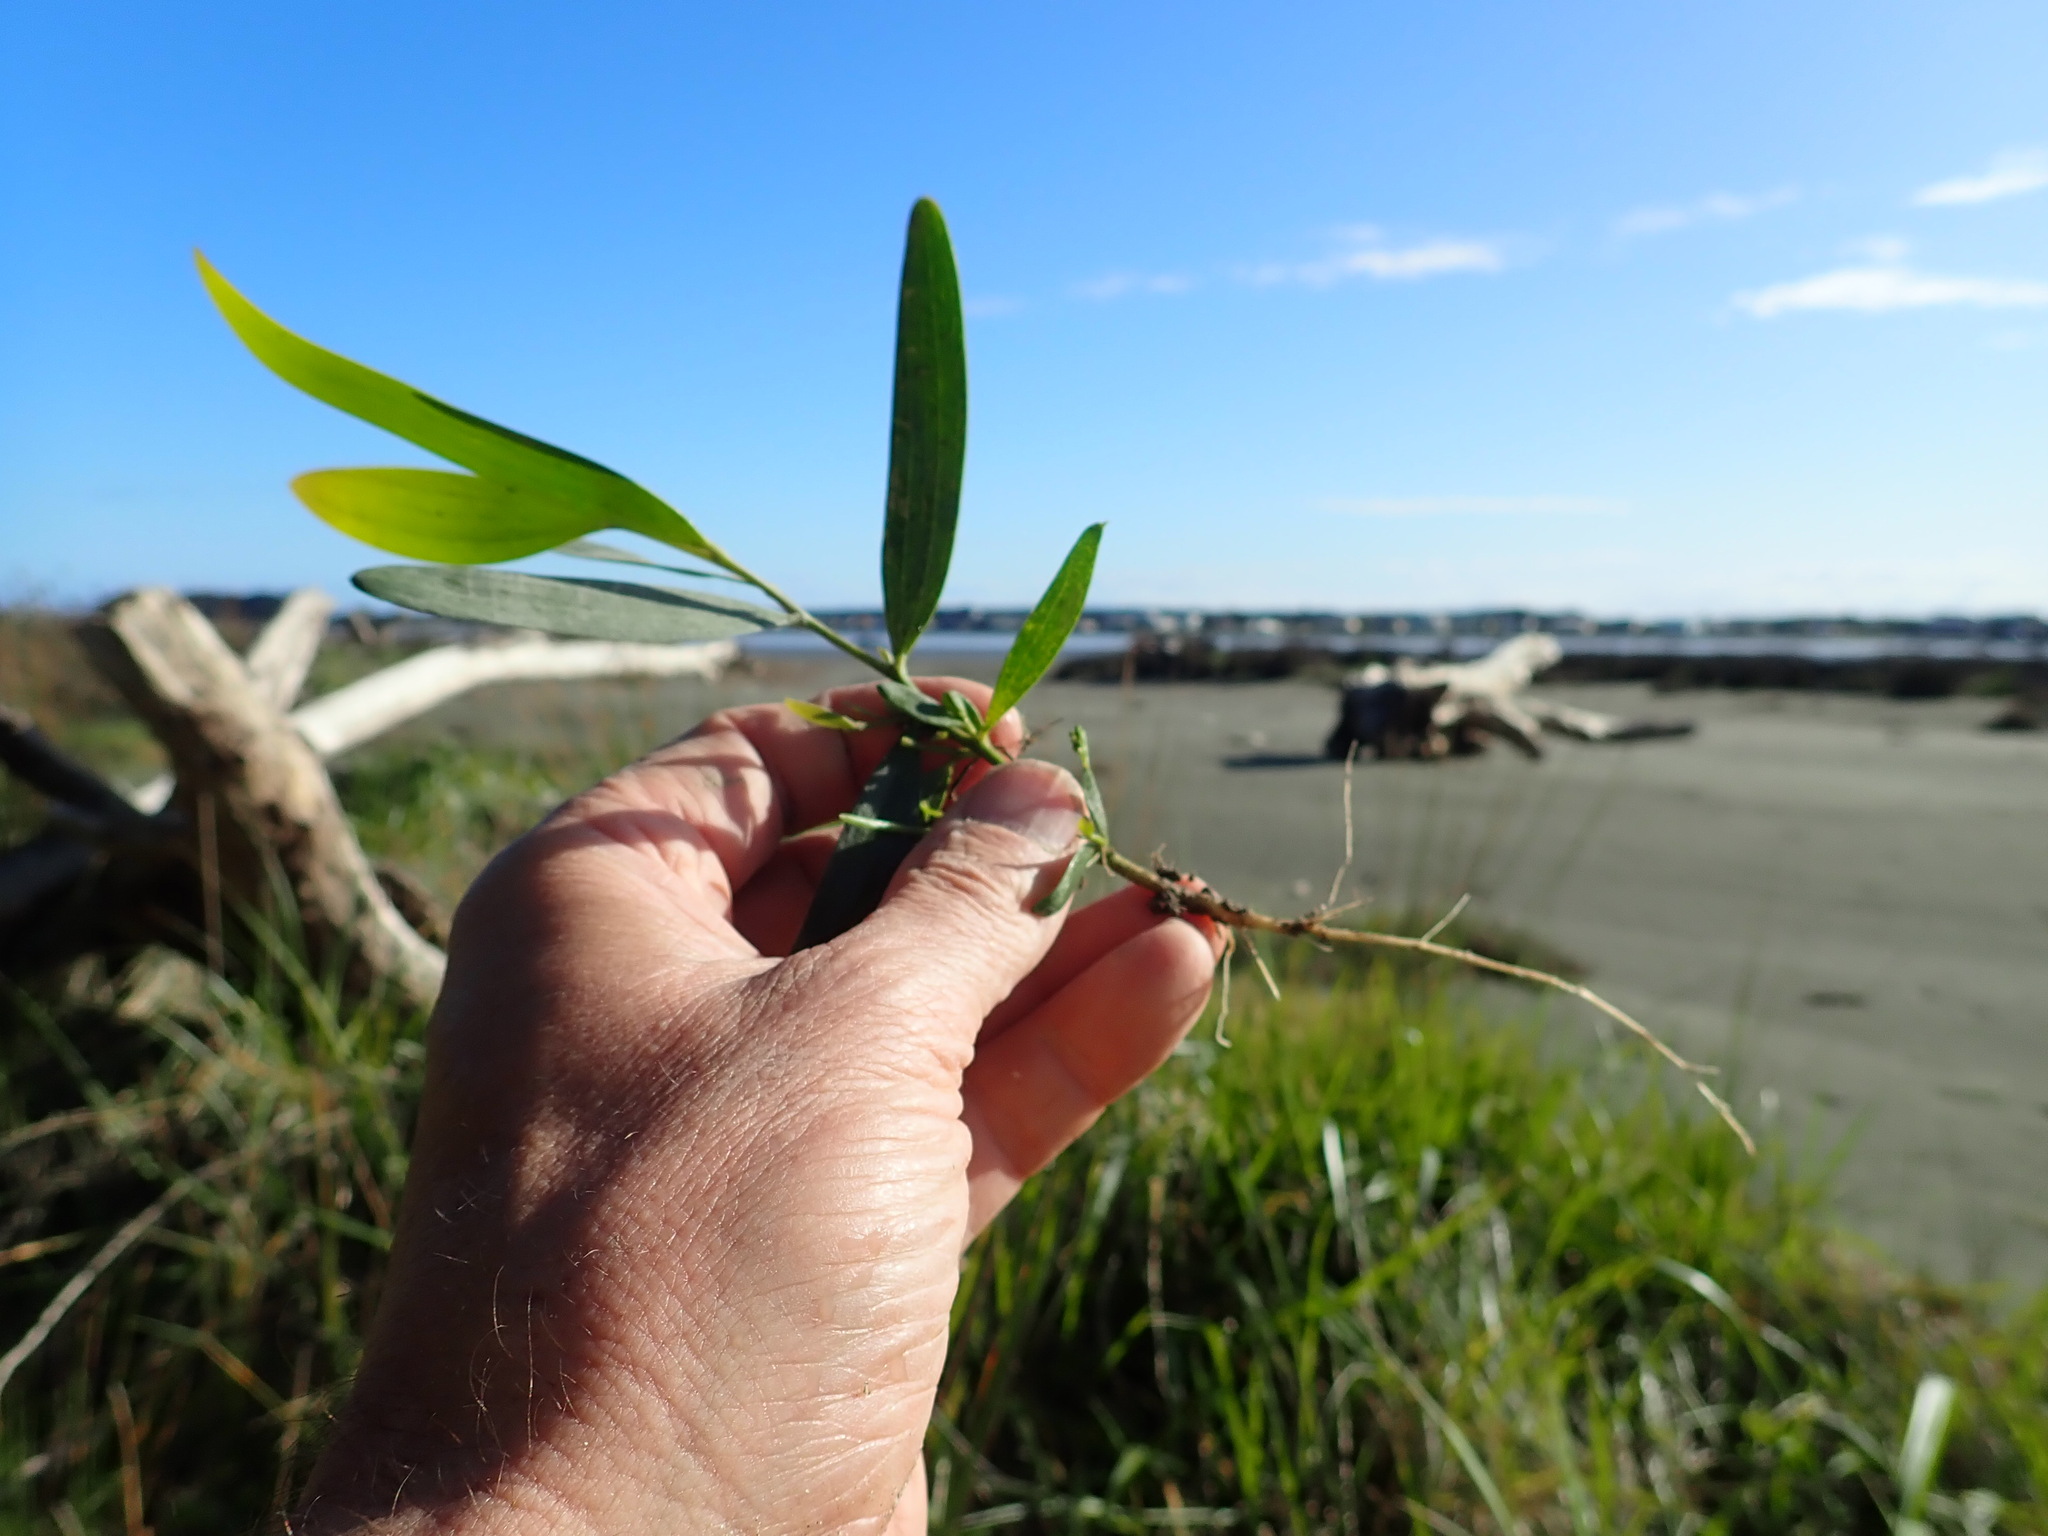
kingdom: Plantae
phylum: Tracheophyta
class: Magnoliopsida
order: Fabales
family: Fabaceae
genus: Acacia
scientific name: Acacia longifolia
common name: Sydney golden wattle
